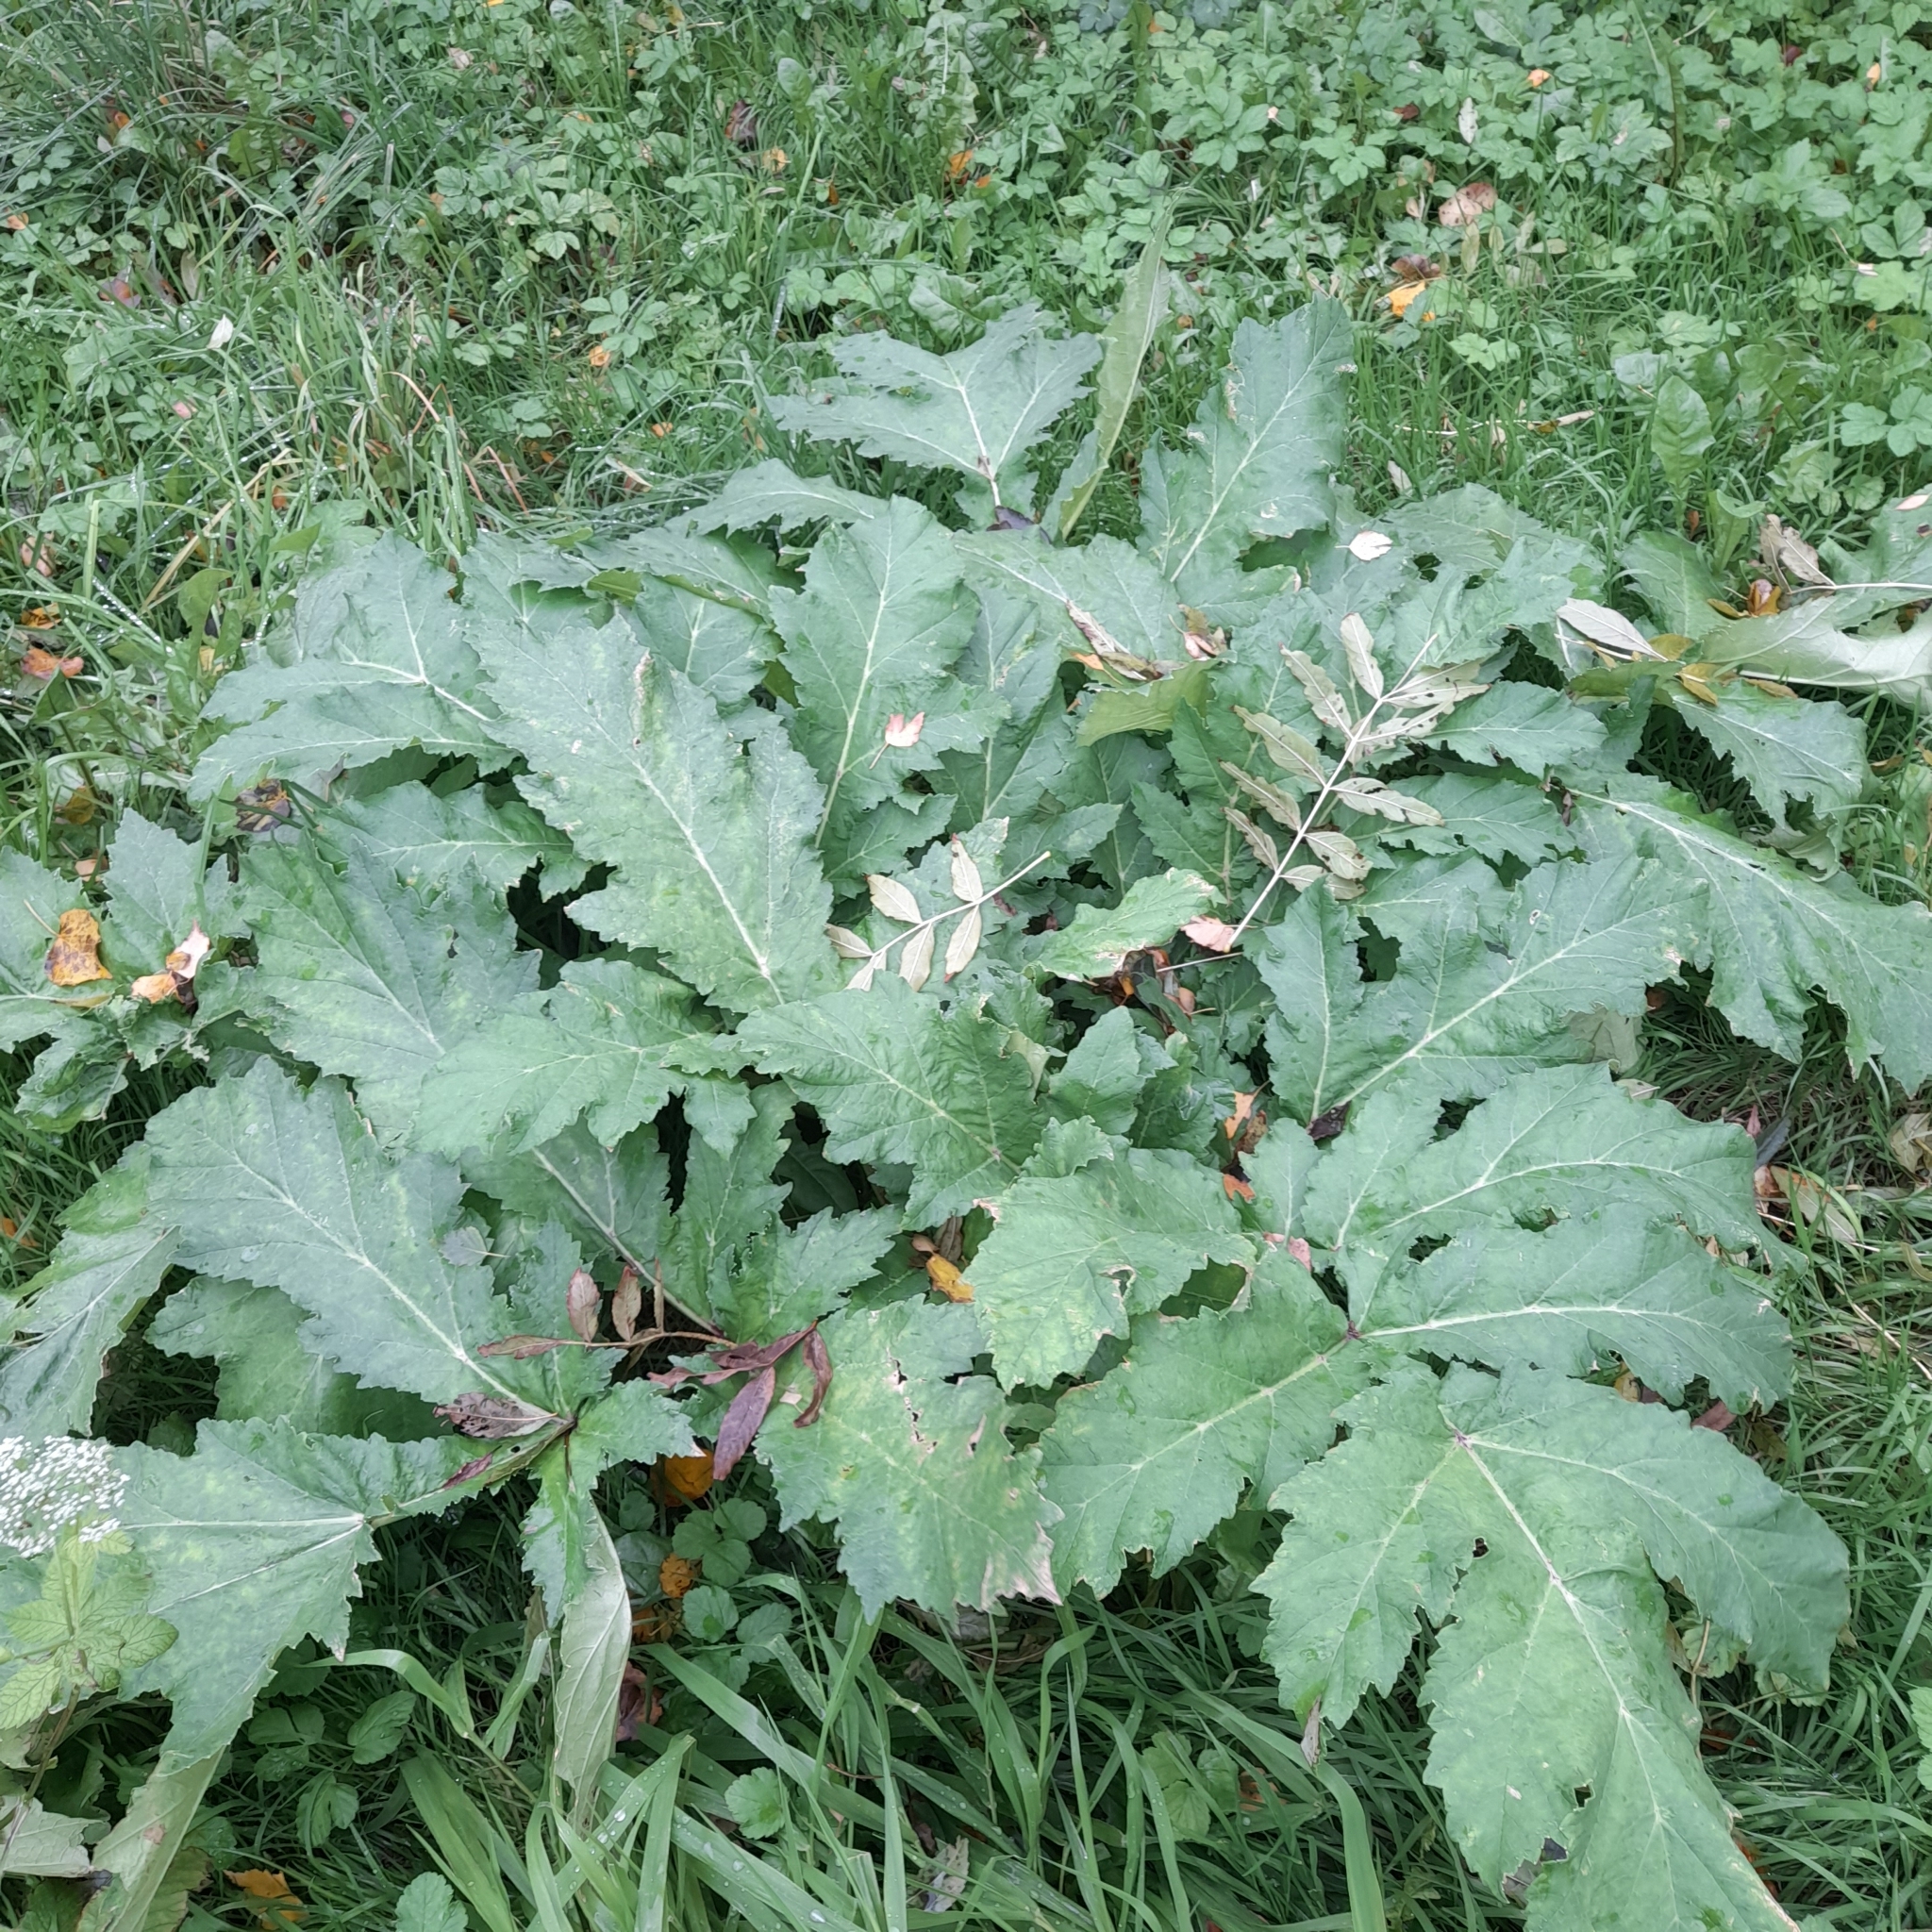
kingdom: Plantae
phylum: Tracheophyta
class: Magnoliopsida
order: Apiales
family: Apiaceae
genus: Heracleum
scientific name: Heracleum sosnowskyi
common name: Sosnowsky's hogweed
